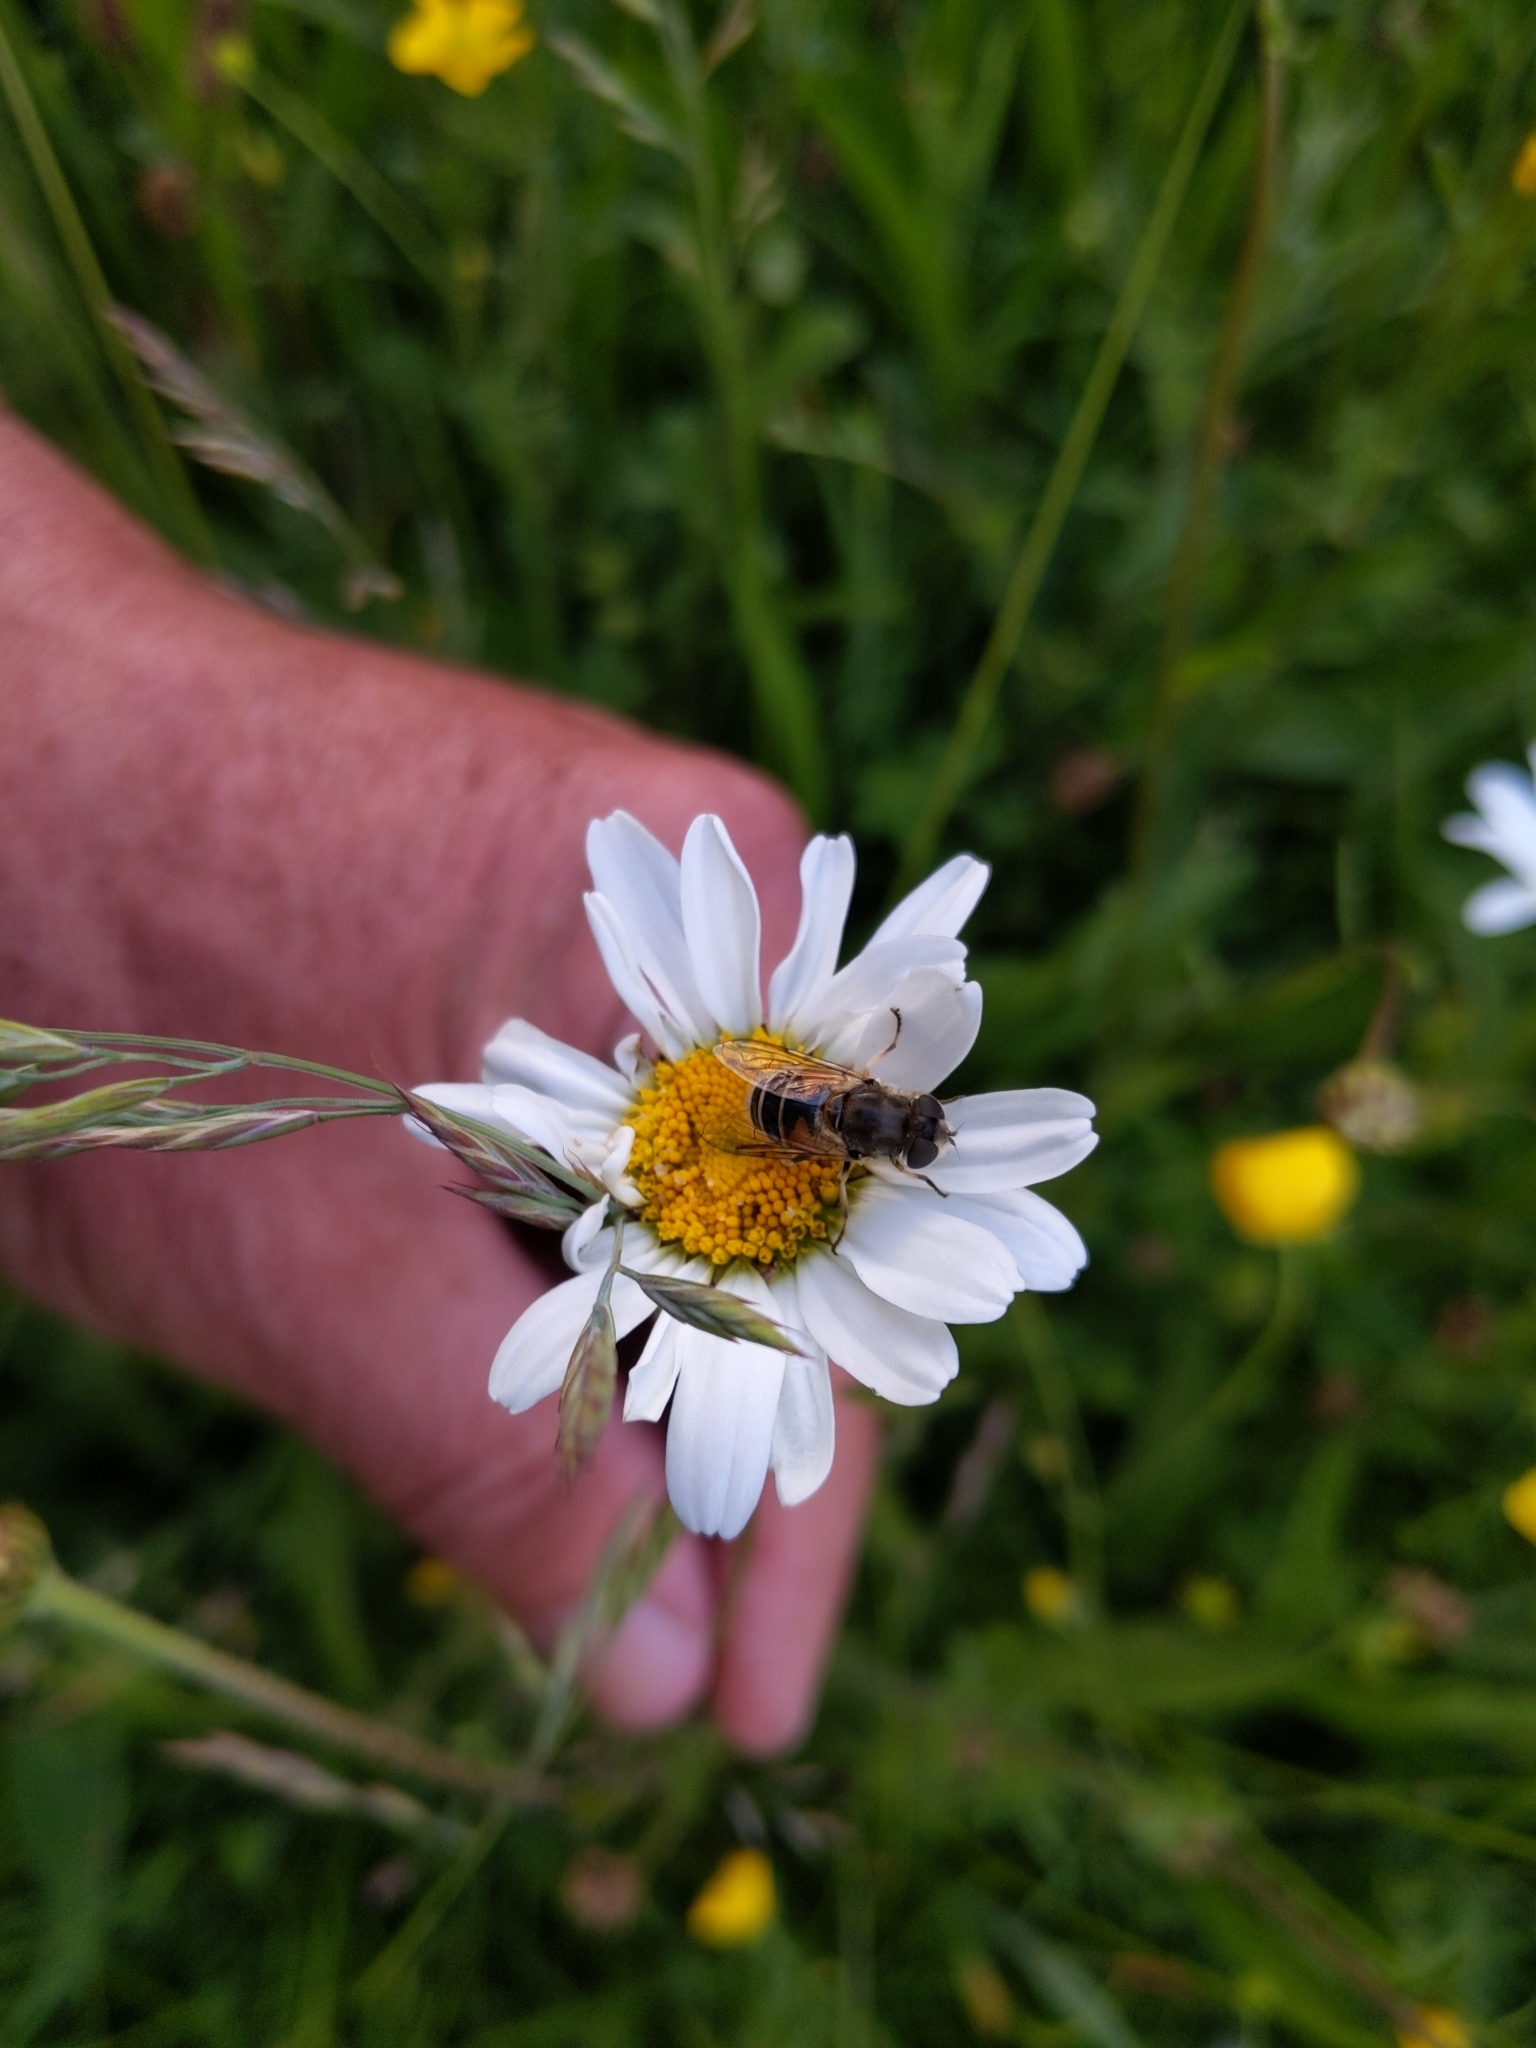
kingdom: Animalia
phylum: Arthropoda
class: Insecta
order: Diptera
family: Syrphidae
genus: Eristalis
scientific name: Eristalis arbustorum
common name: Hover fly
